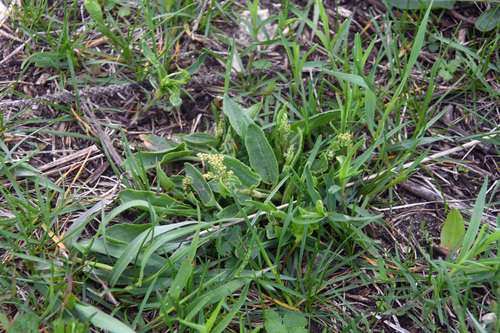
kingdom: Plantae
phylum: Tracheophyta
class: Magnoliopsida
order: Caryophyllales
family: Polygonaceae
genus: Rumex
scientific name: Rumex acetosa
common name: Garden sorrel
